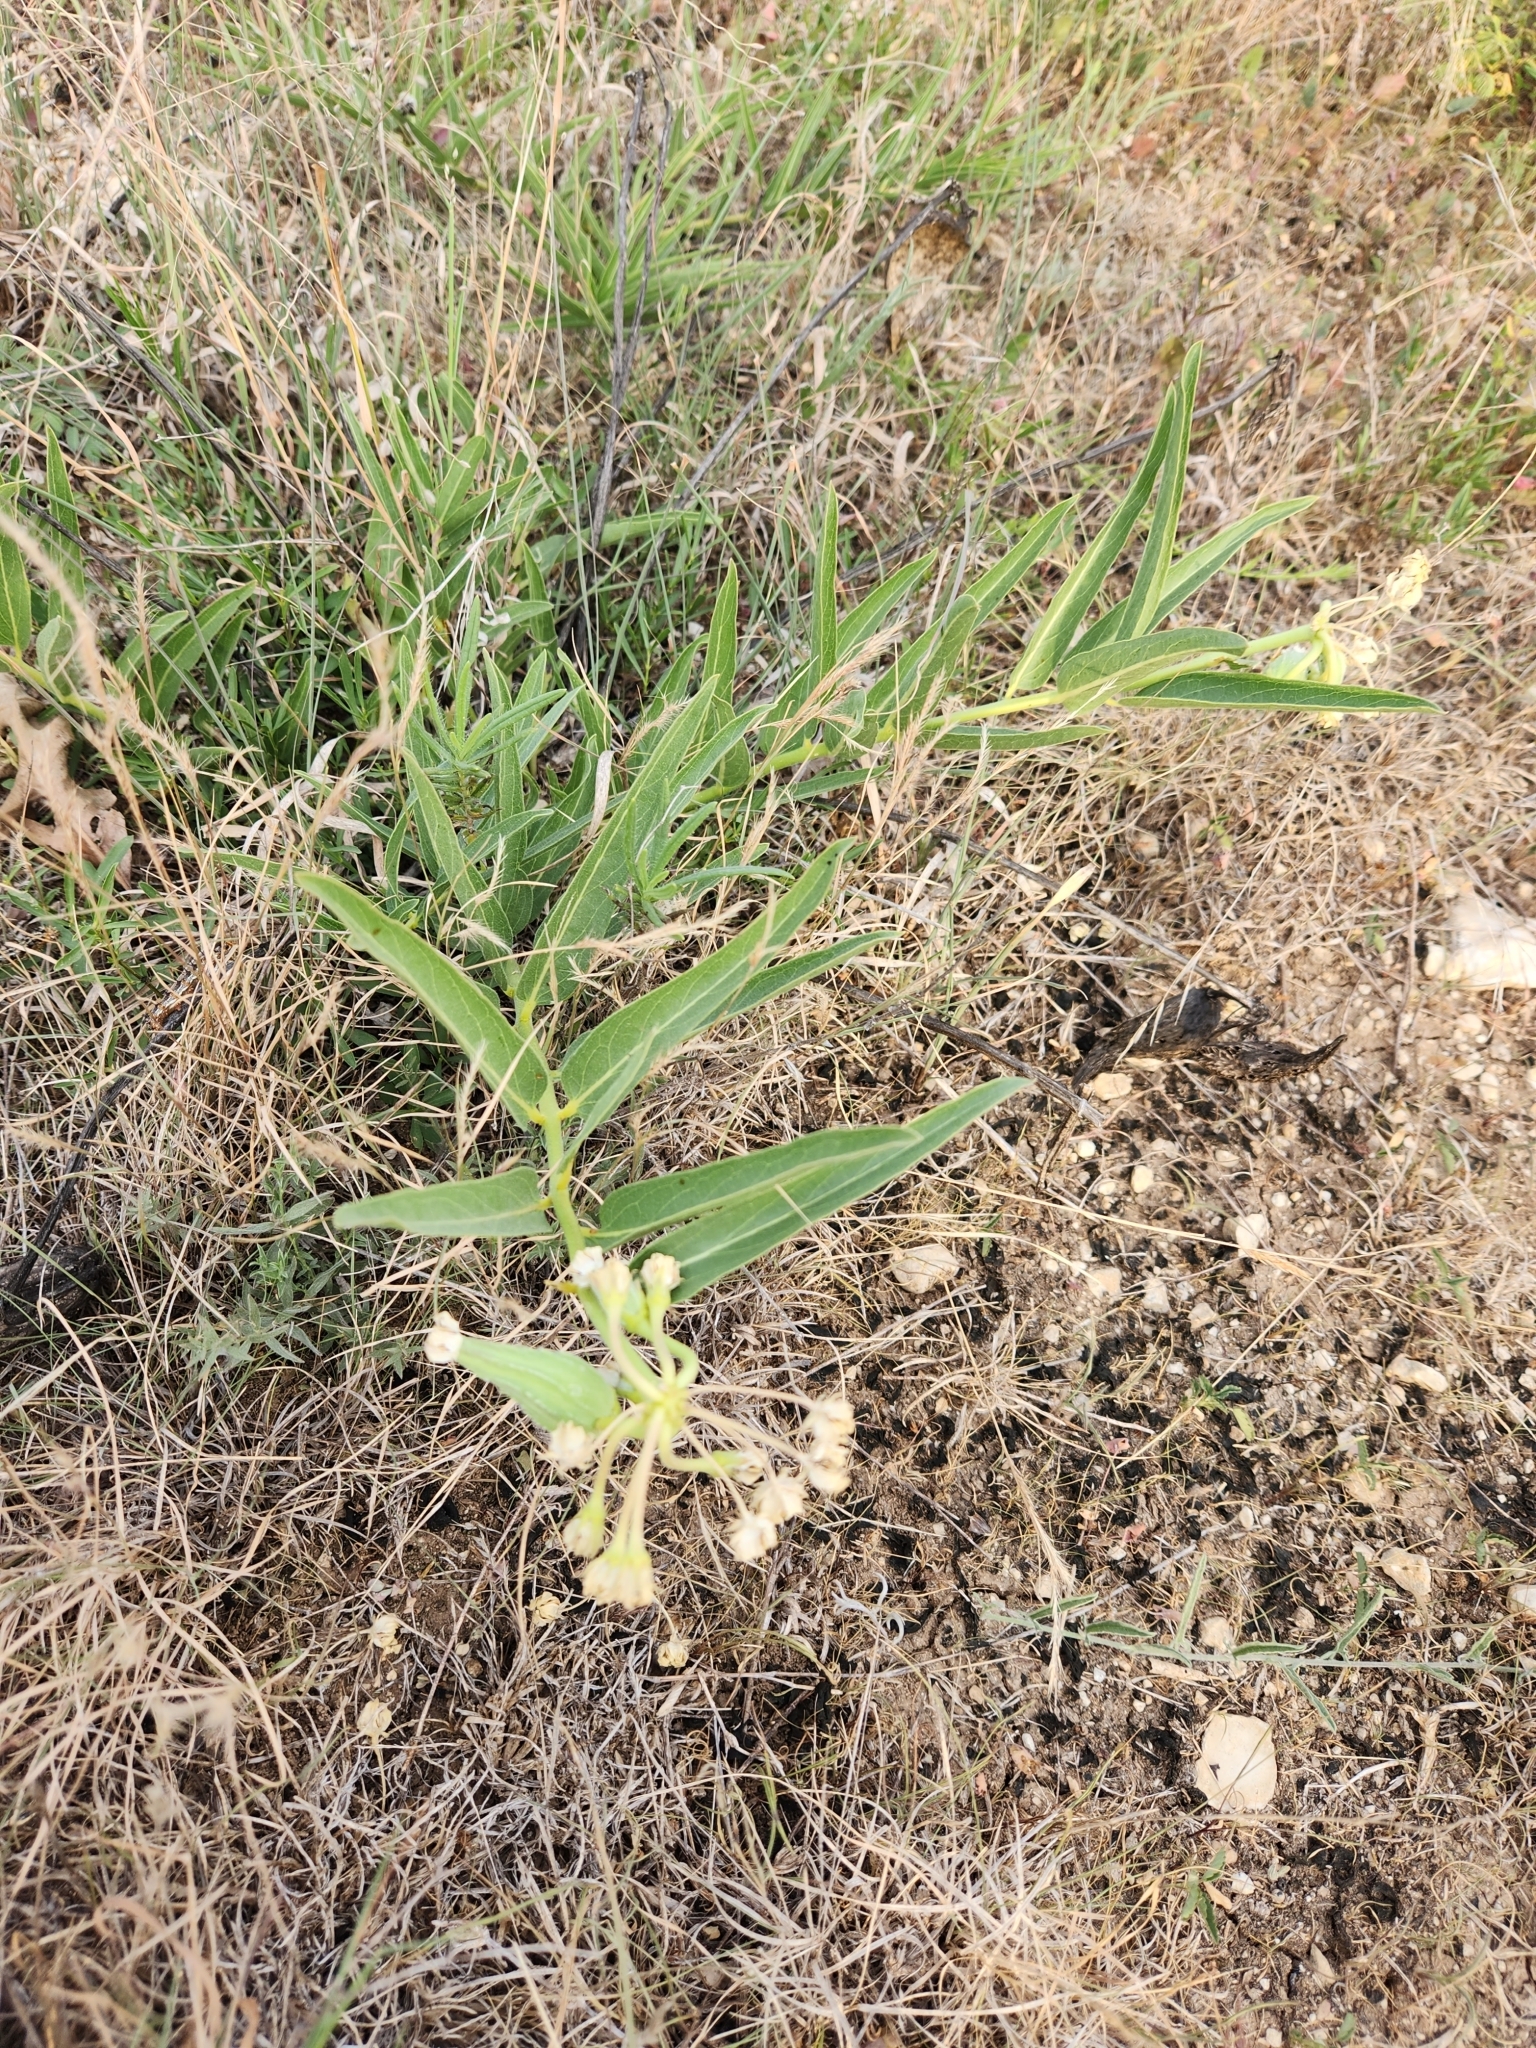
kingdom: Plantae
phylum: Tracheophyta
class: Magnoliopsida
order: Gentianales
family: Apocynaceae
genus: Asclepias
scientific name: Asclepias asperula
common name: Antelope horns
